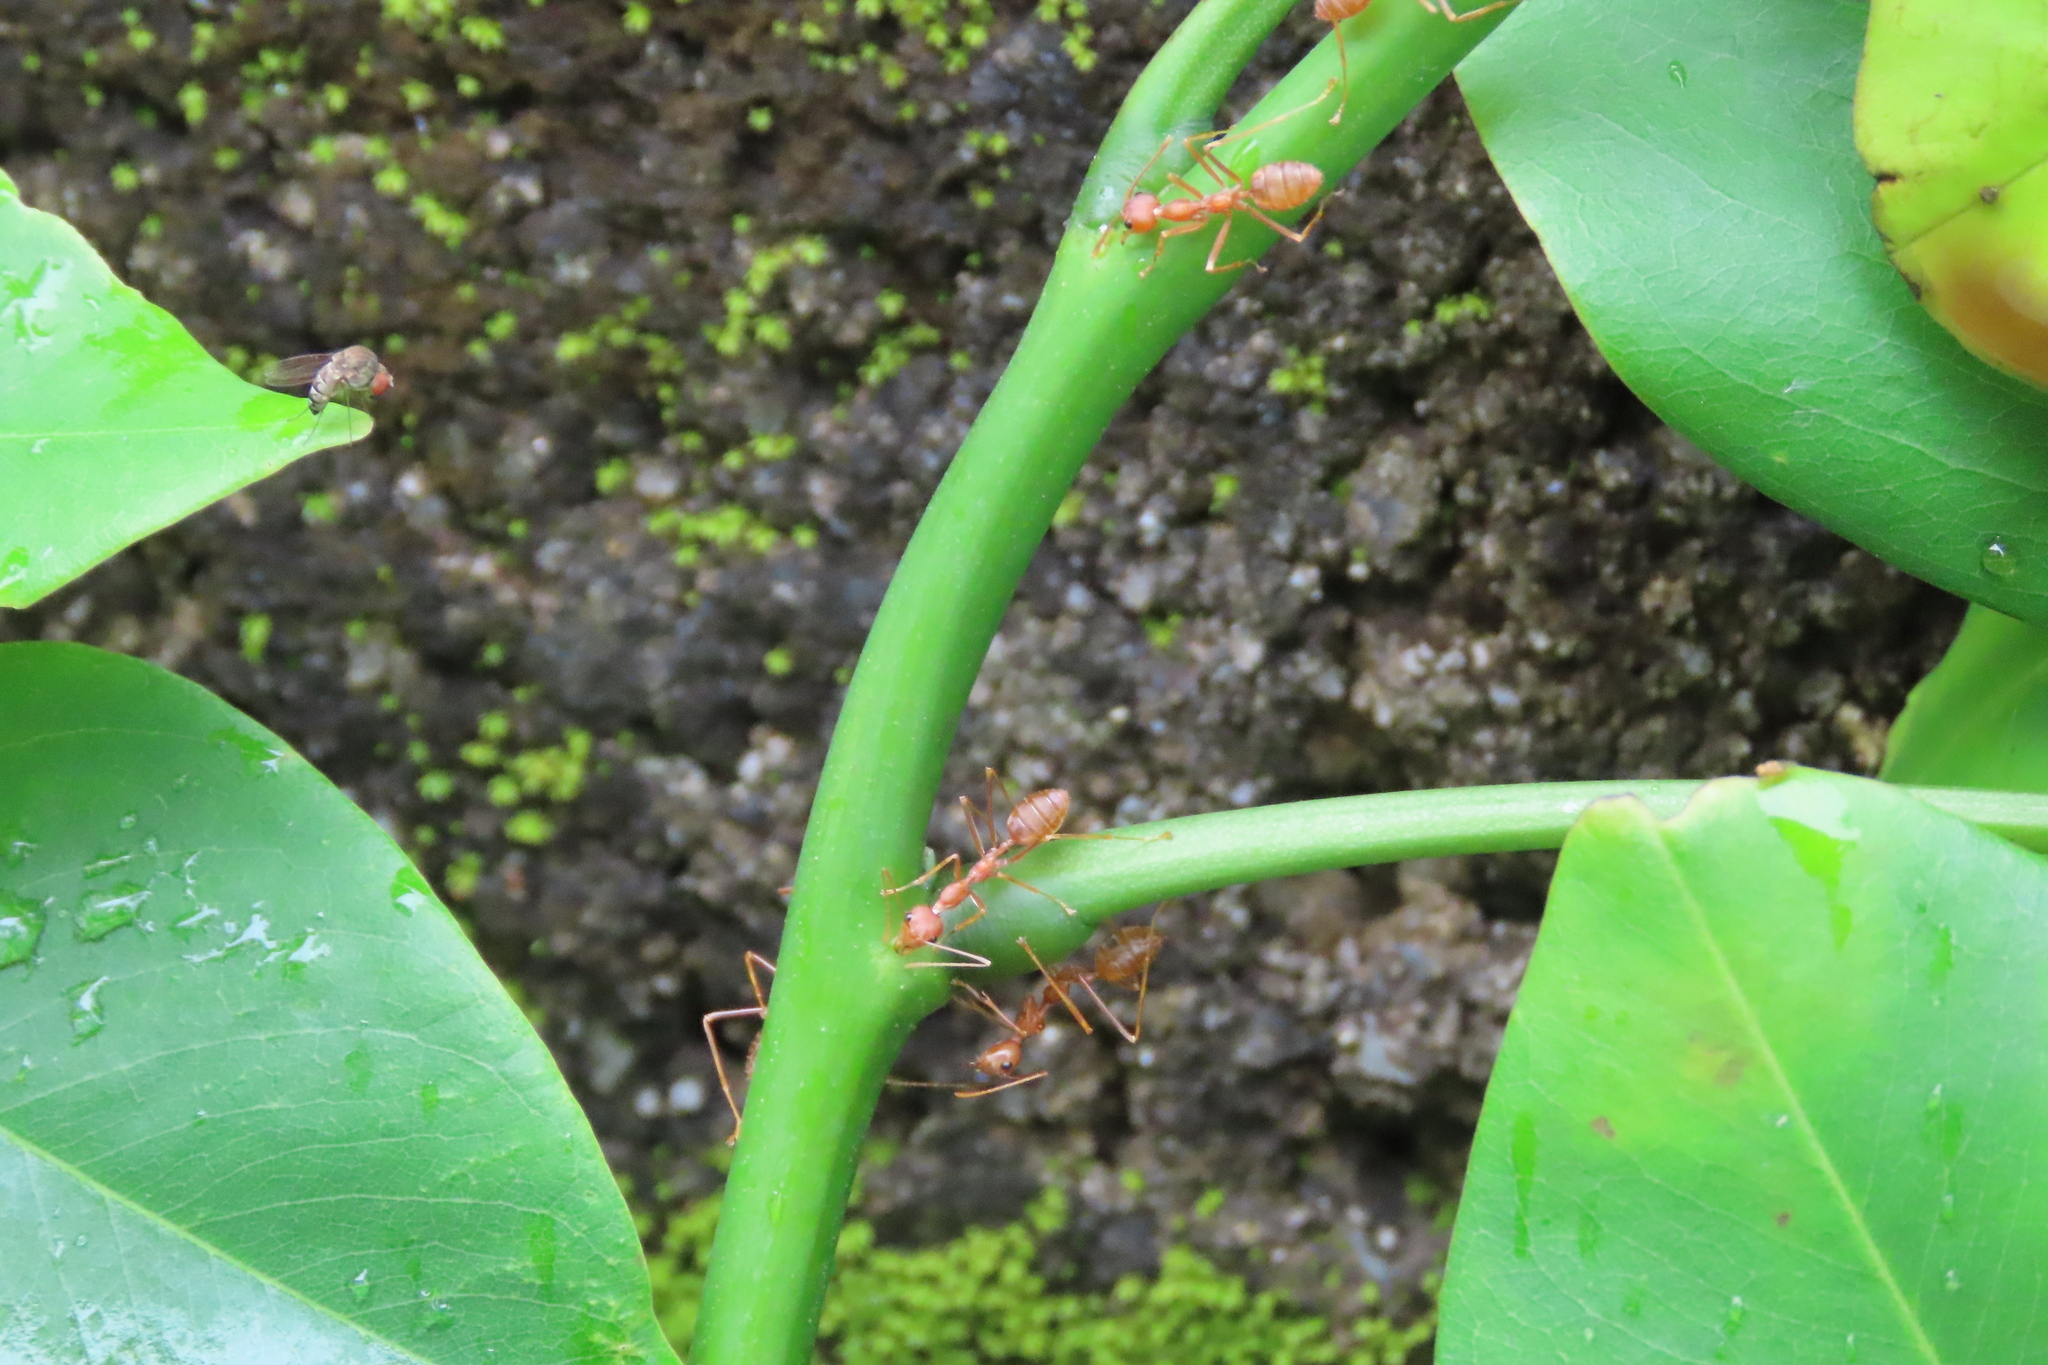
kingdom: Animalia
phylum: Arthropoda
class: Insecta
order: Hymenoptera
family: Formicidae
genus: Oecophylla
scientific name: Oecophylla smaragdina
